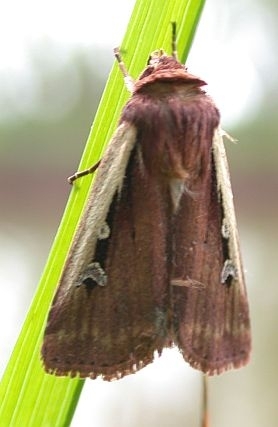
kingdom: Animalia
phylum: Arthropoda
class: Insecta
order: Lepidoptera
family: Noctuidae
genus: Ochropleura
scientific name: Ochropleura plecta
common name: Flame shoulder
